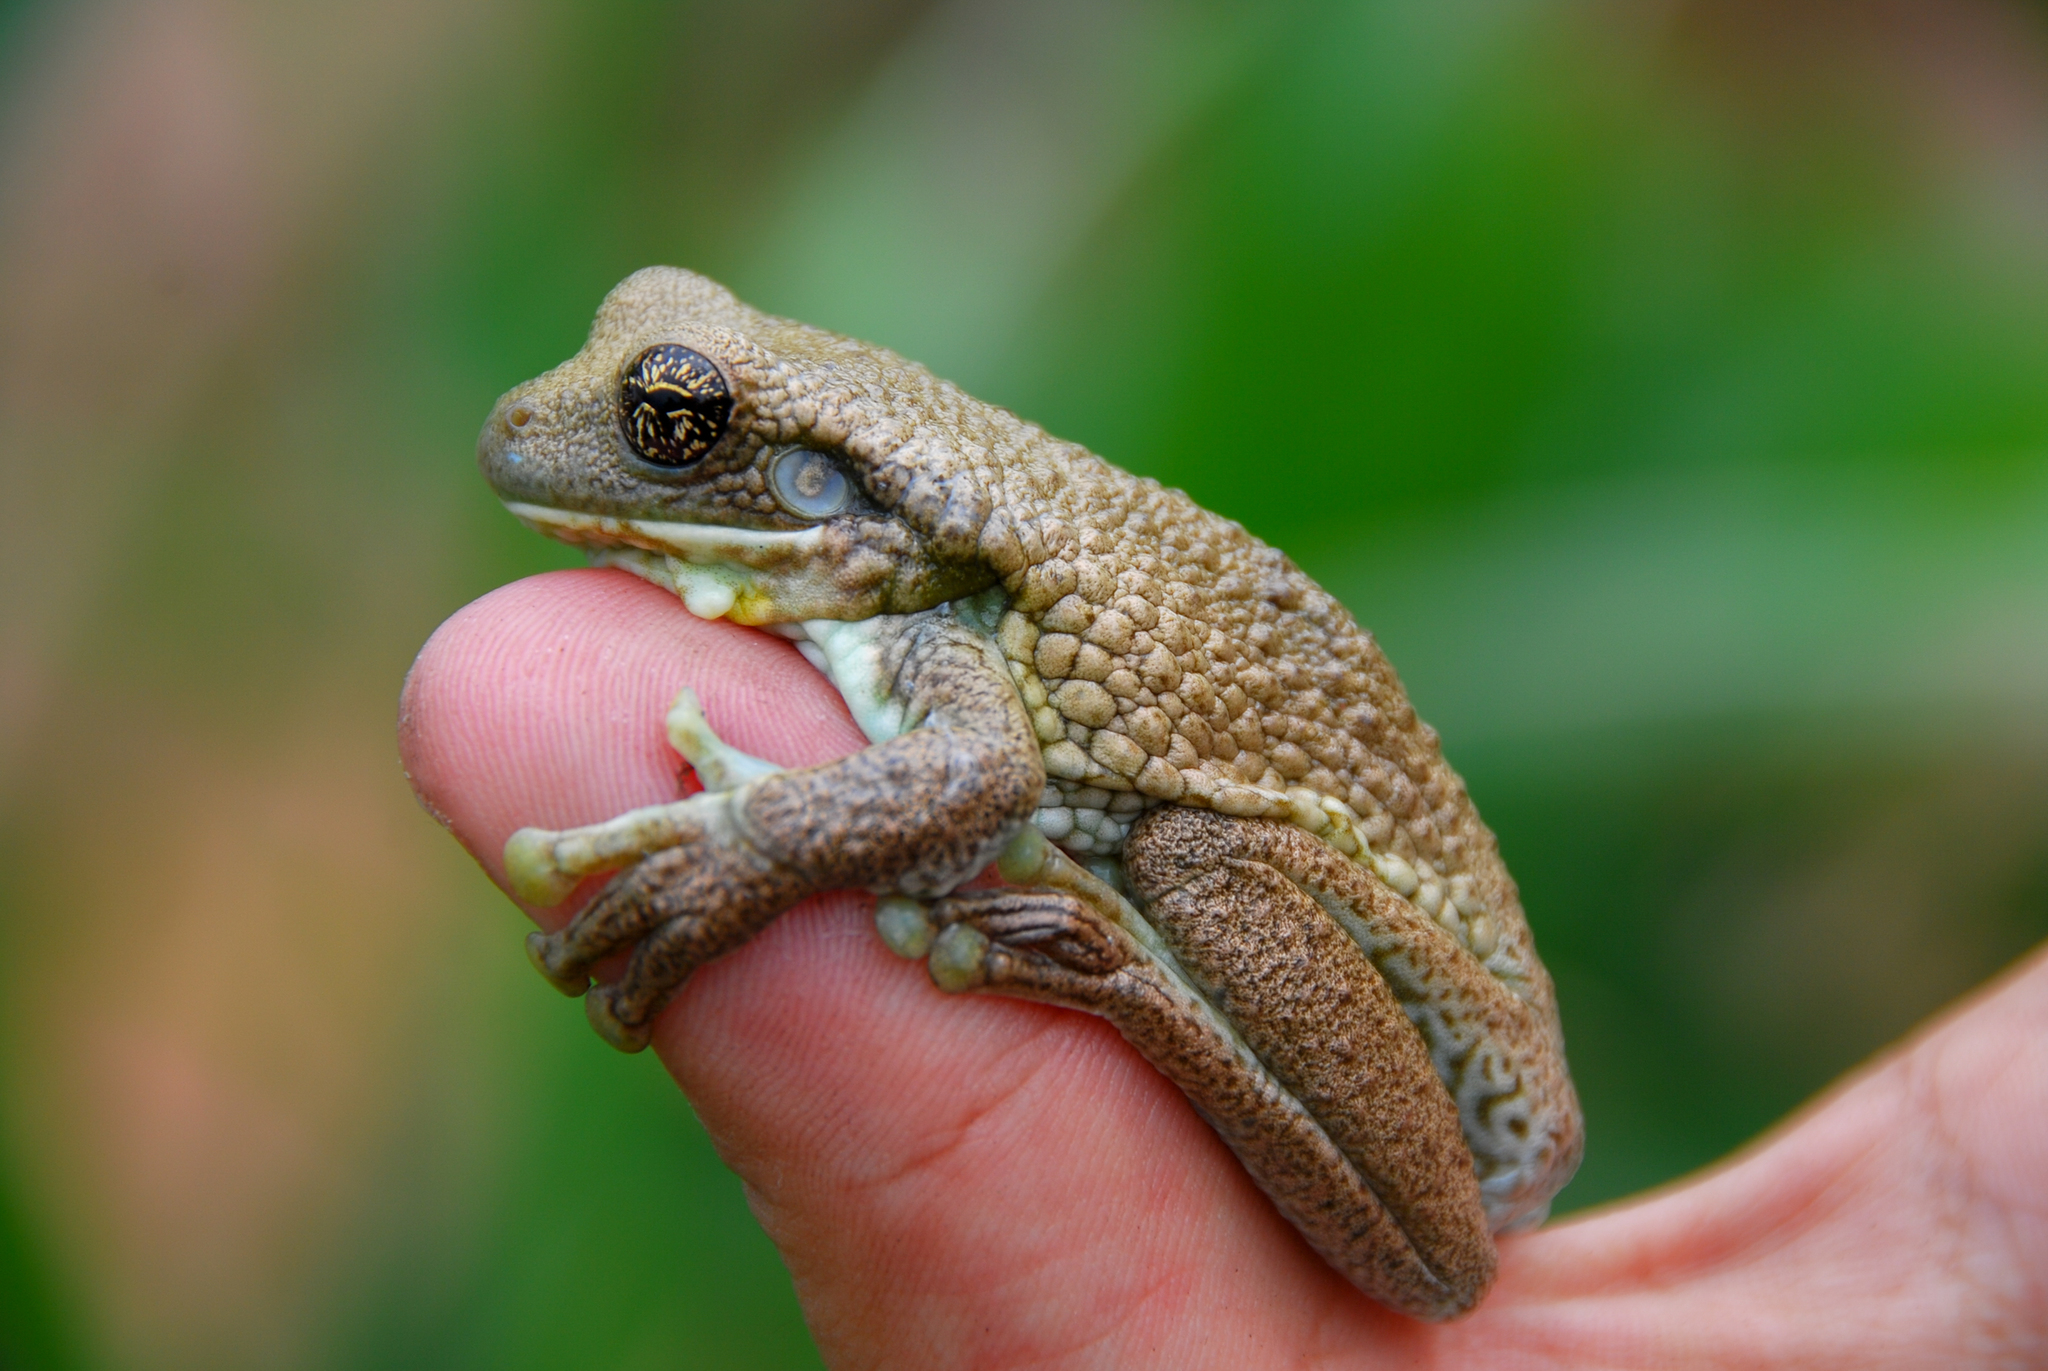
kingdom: Animalia
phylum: Chordata
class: Amphibia
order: Anura
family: Hylidae
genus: Trachycephalus
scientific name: Trachycephalus typhonius
